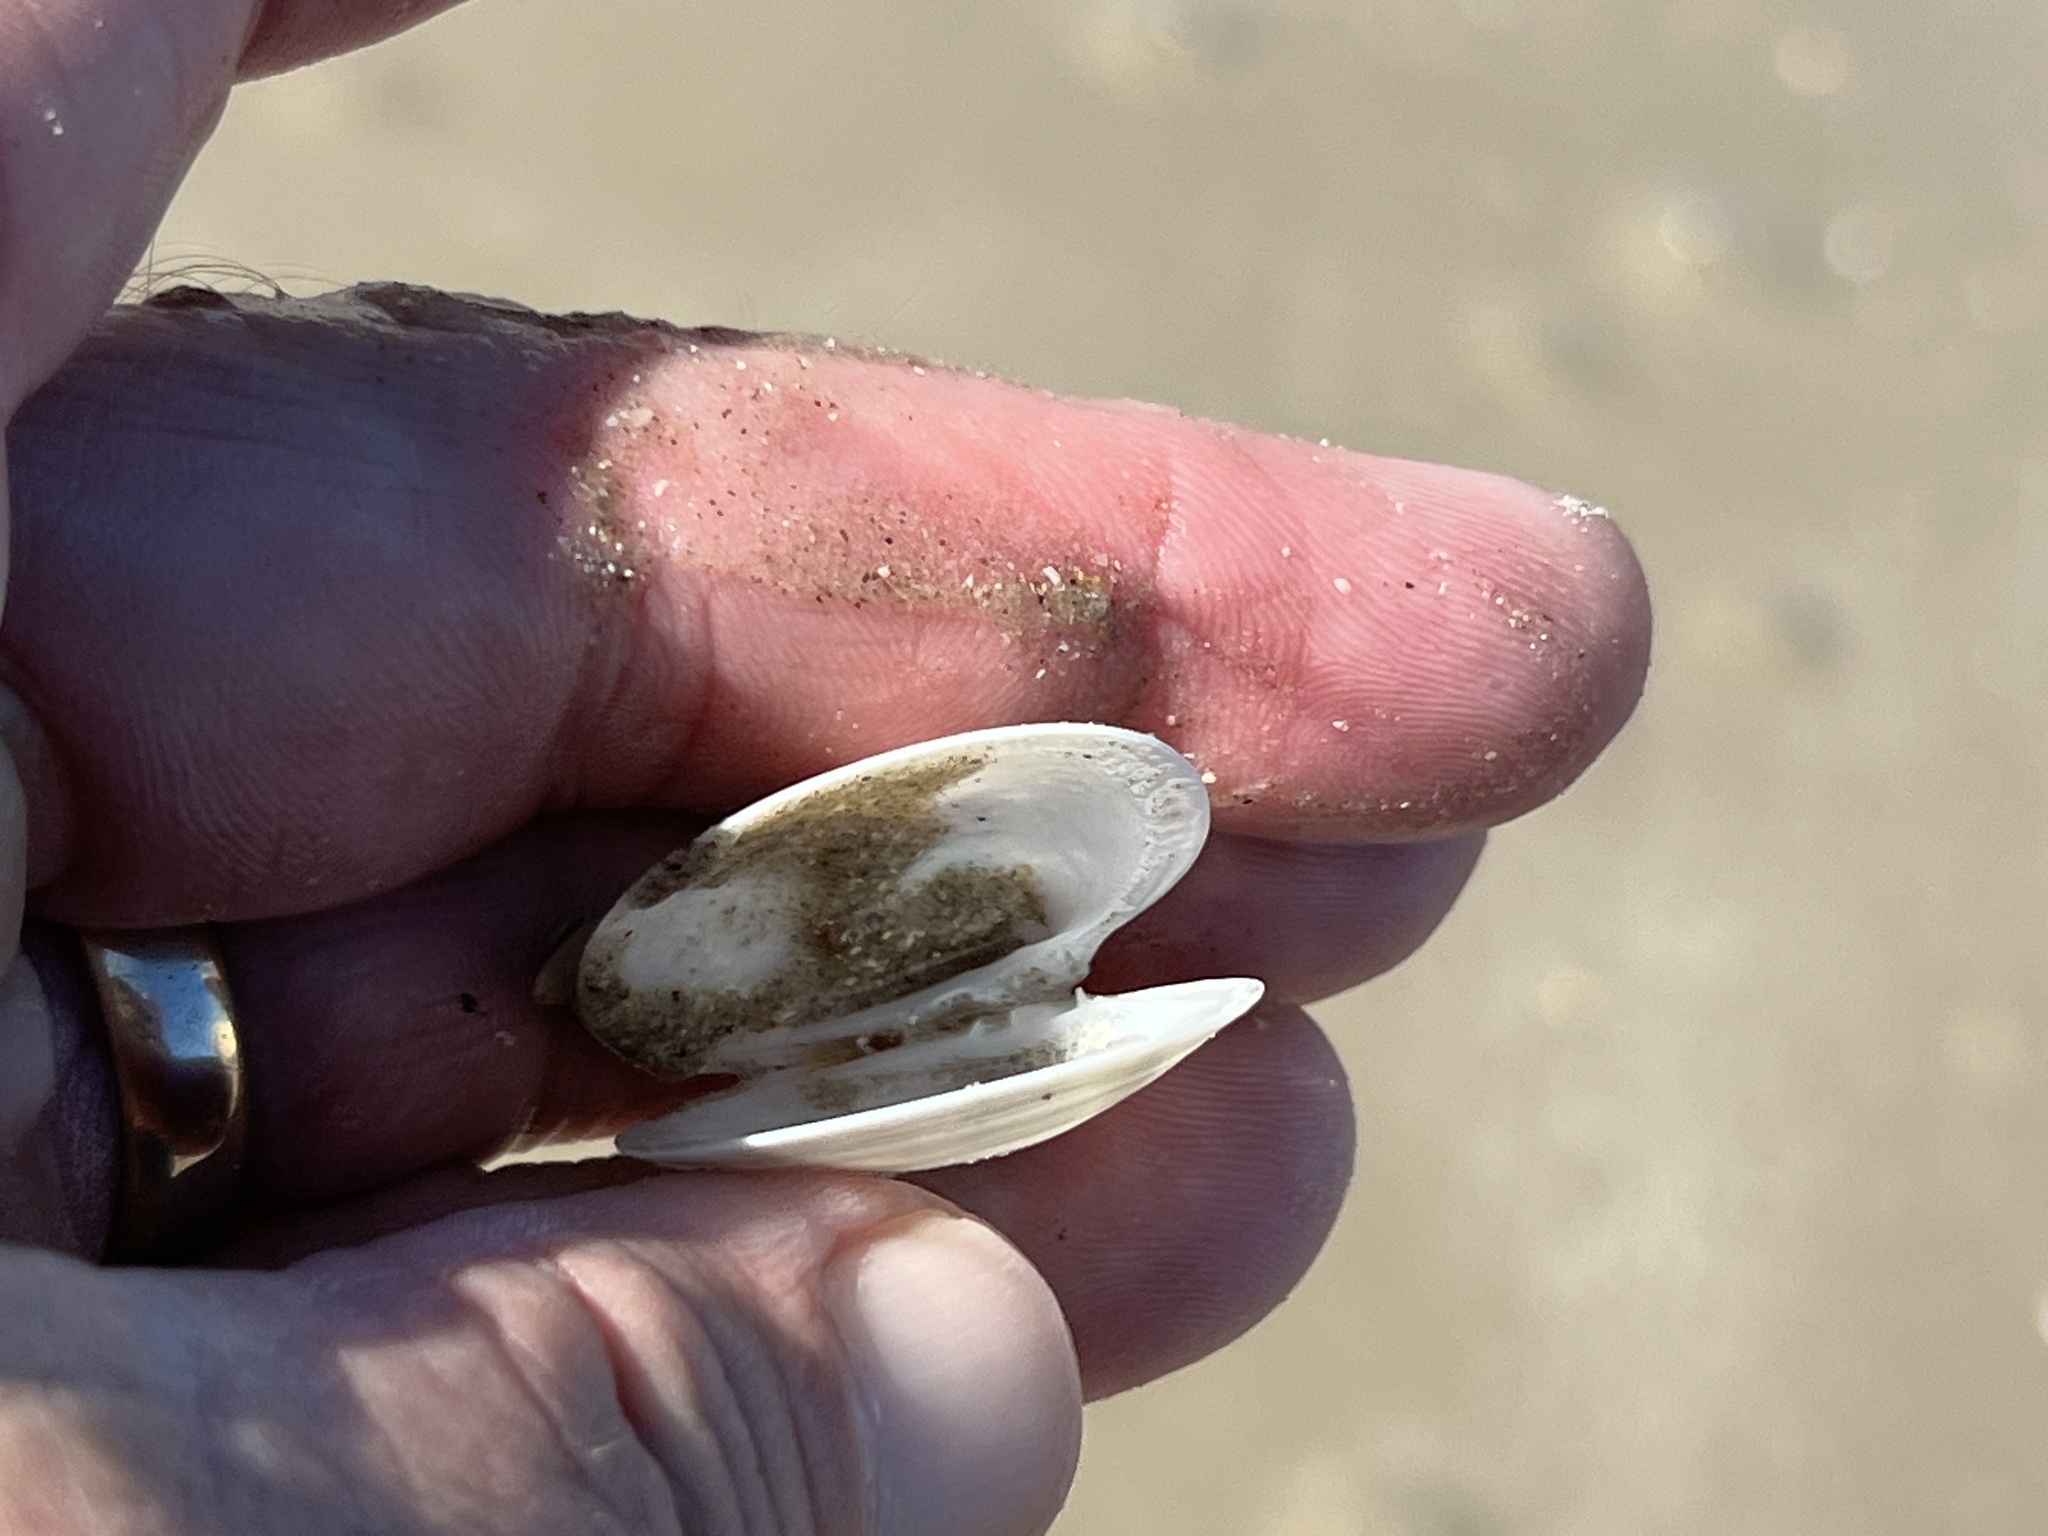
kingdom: Animalia
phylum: Mollusca
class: Bivalvia
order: Venerida
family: Veneridae
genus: Dosinia
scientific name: Dosinia discus
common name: Disk dosinia
